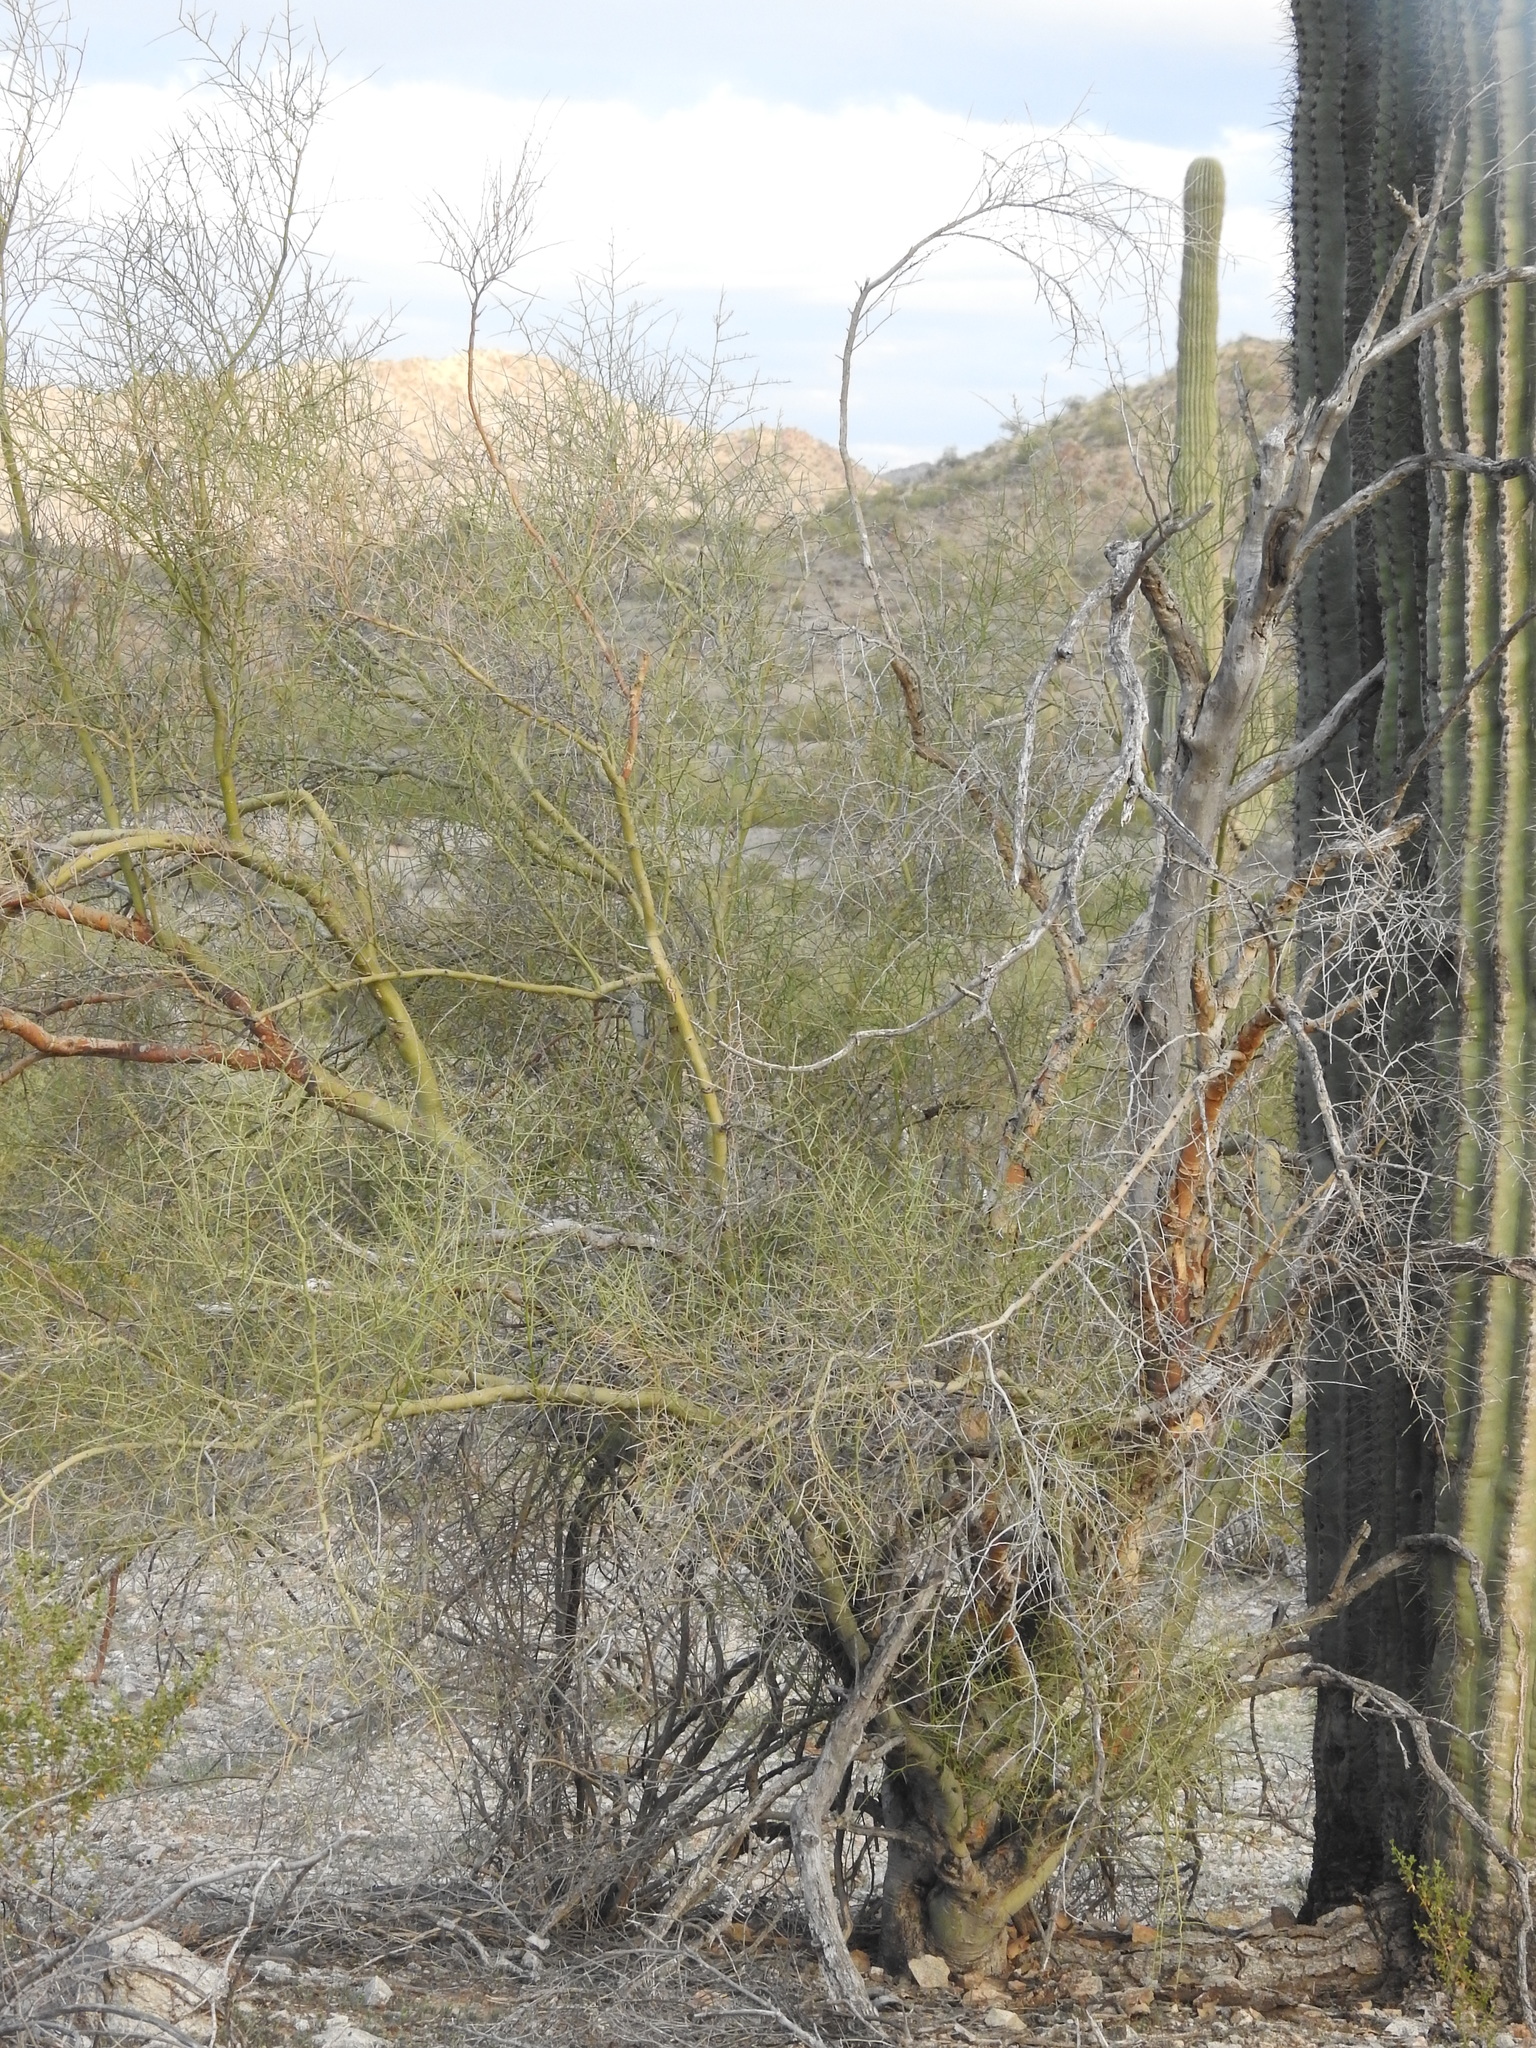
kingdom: Plantae
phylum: Tracheophyta
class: Magnoliopsida
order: Fabales
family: Fabaceae
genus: Parkinsonia
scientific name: Parkinsonia microphylla
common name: Yellow paloverde
